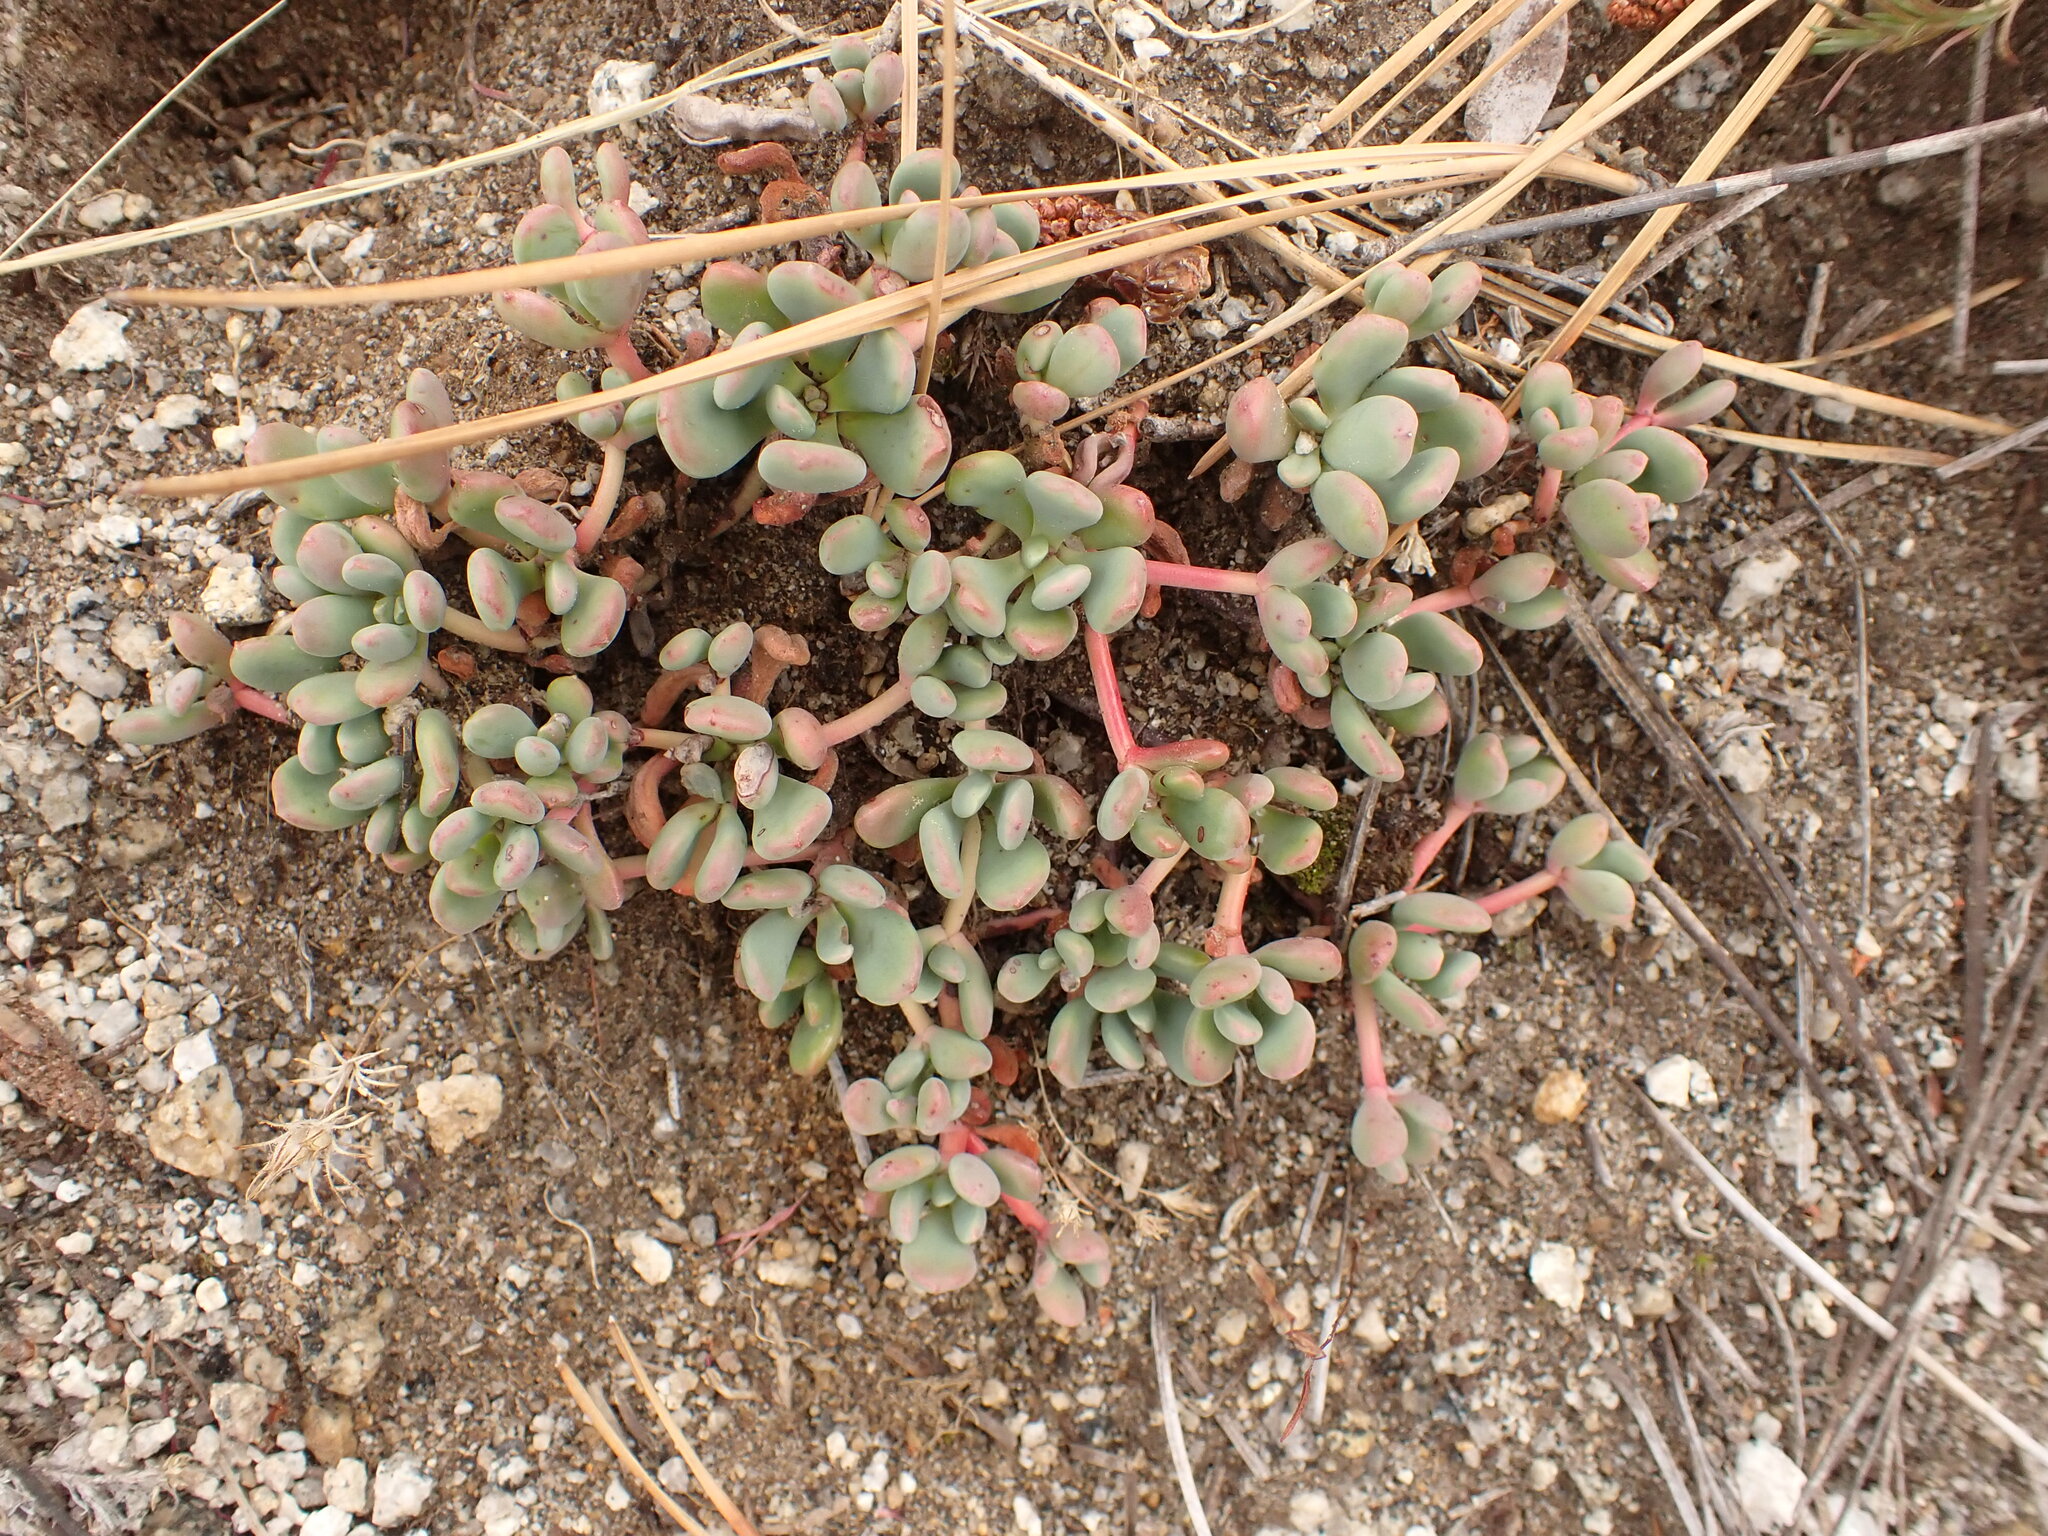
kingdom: Plantae
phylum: Tracheophyta
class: Magnoliopsida
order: Saxifragales
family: Crassulaceae
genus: Sedum
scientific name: Sedum obtusatum
